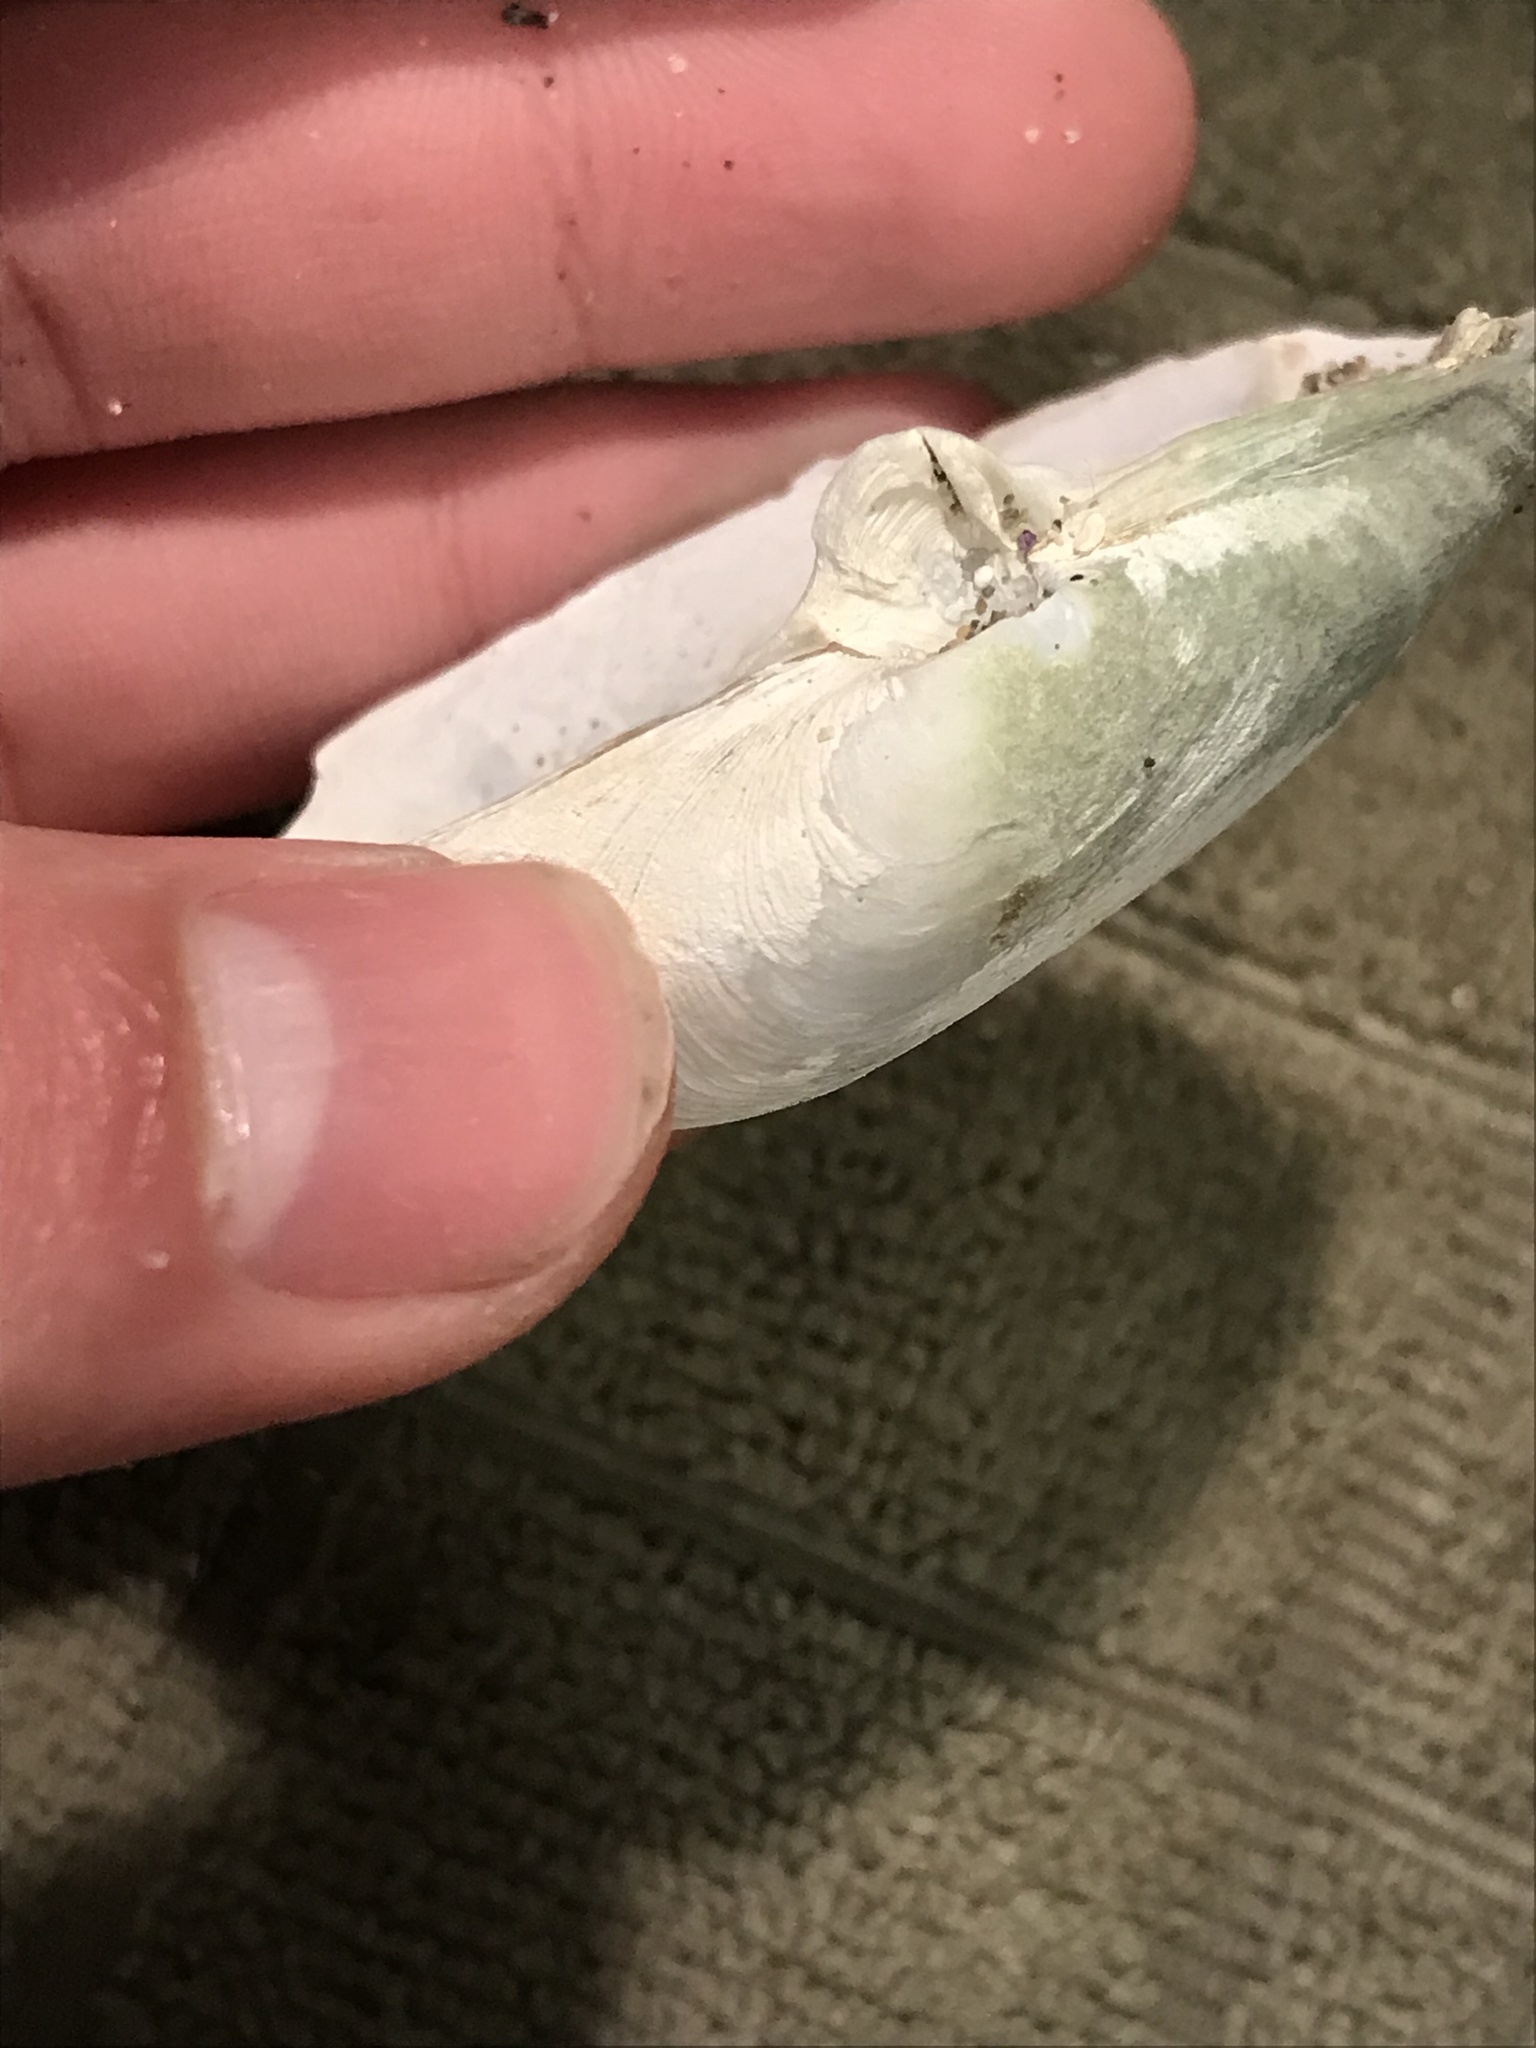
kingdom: Animalia
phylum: Mollusca
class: Bivalvia
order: Myida
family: Myidae
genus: Platyodon
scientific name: Platyodon cancellatus
